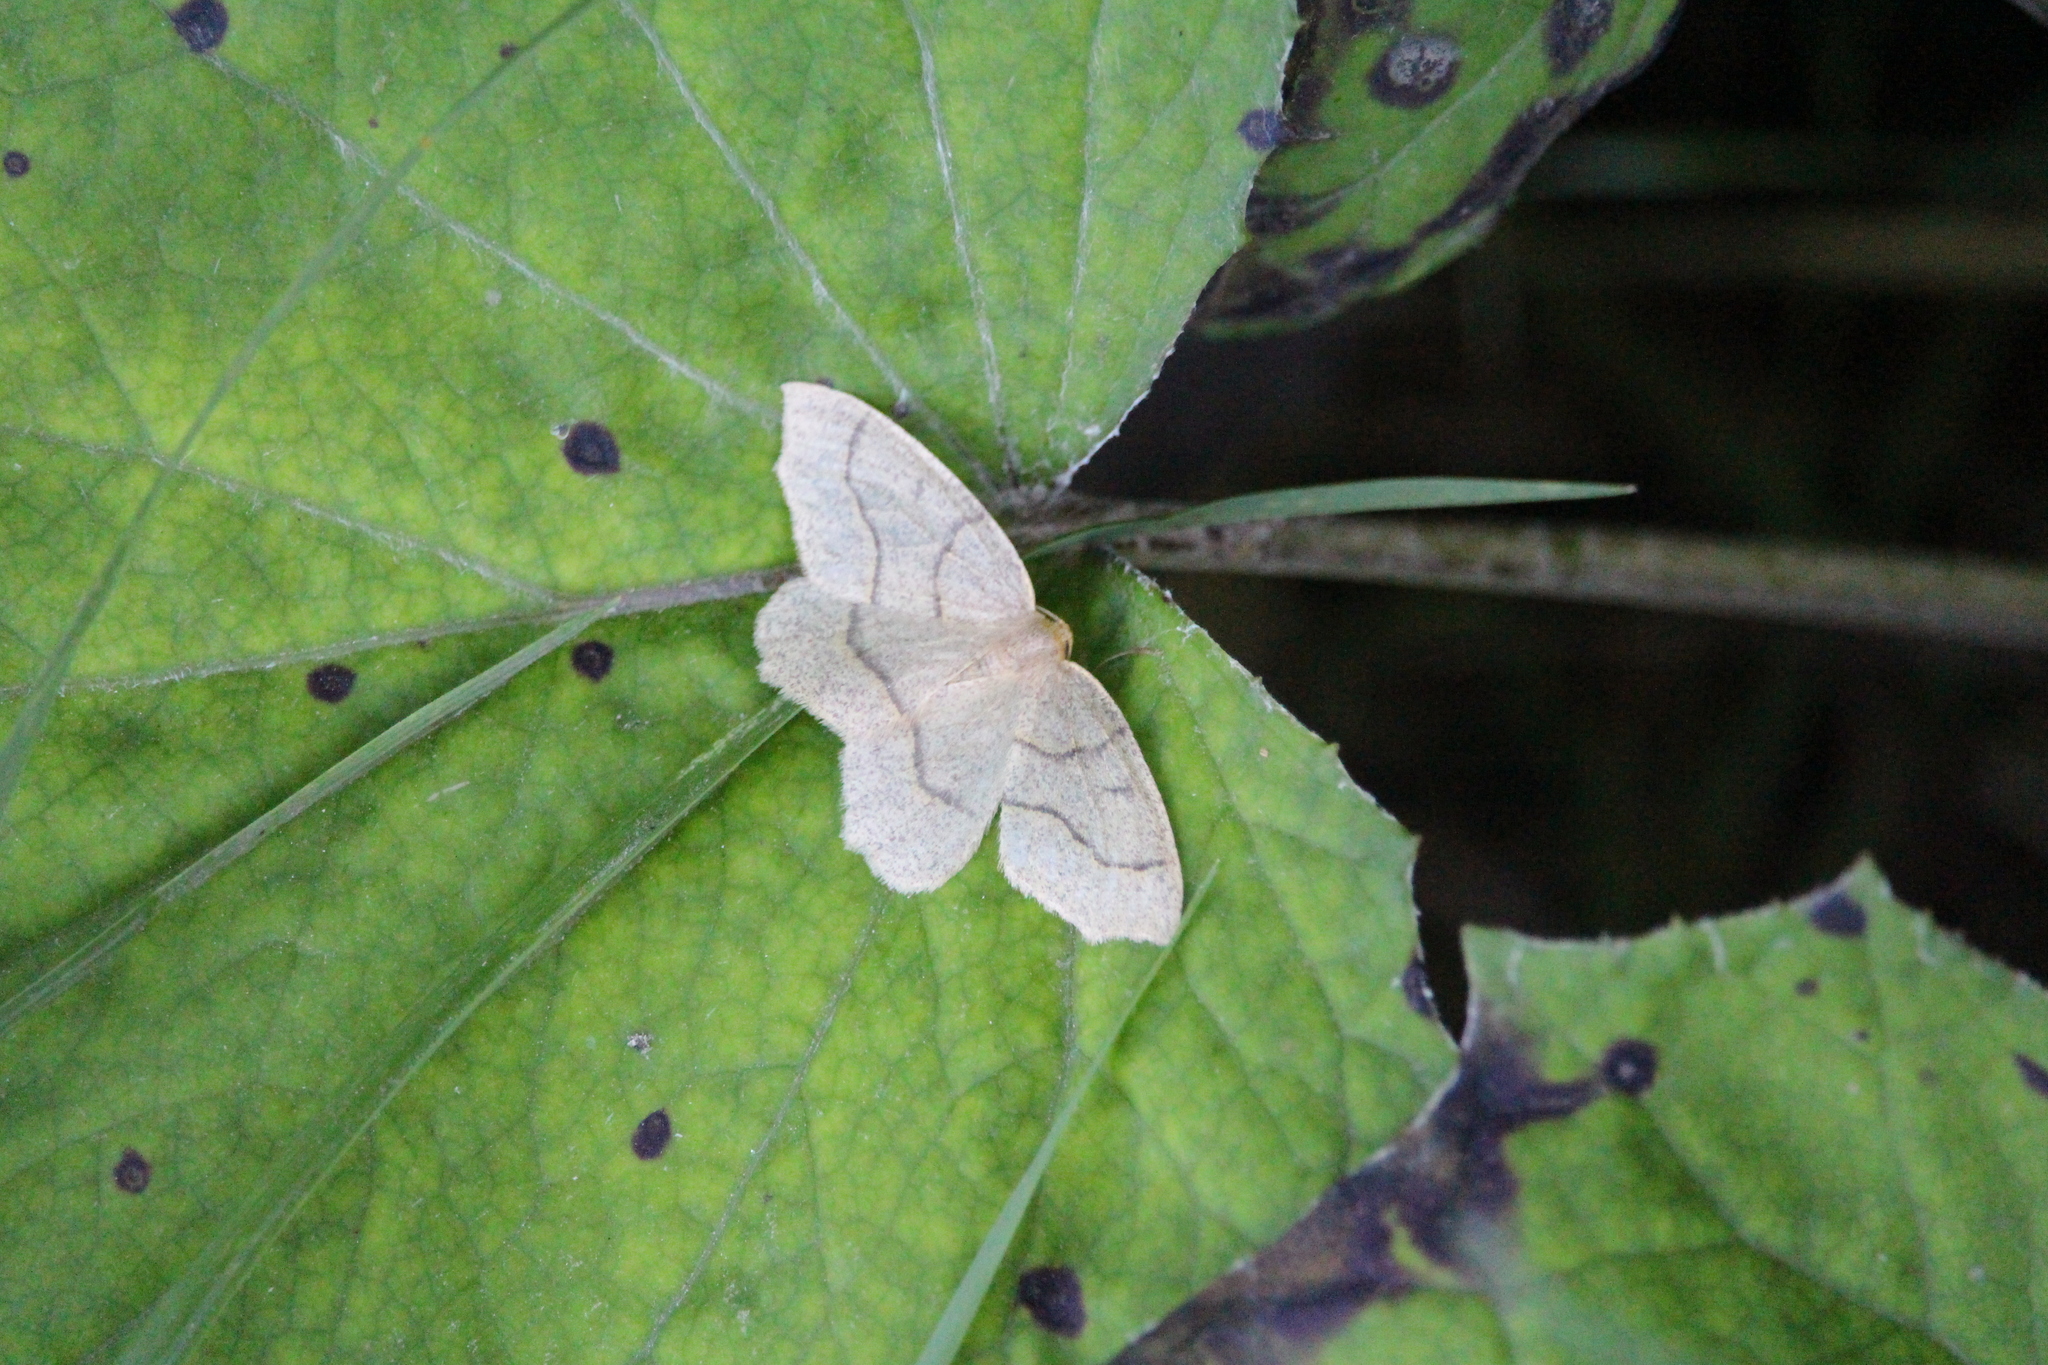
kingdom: Animalia
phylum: Arthropoda
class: Insecta
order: Lepidoptera
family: Geometridae
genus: Lambdina
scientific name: Lambdina fiscellaria
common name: Hemlock looper
